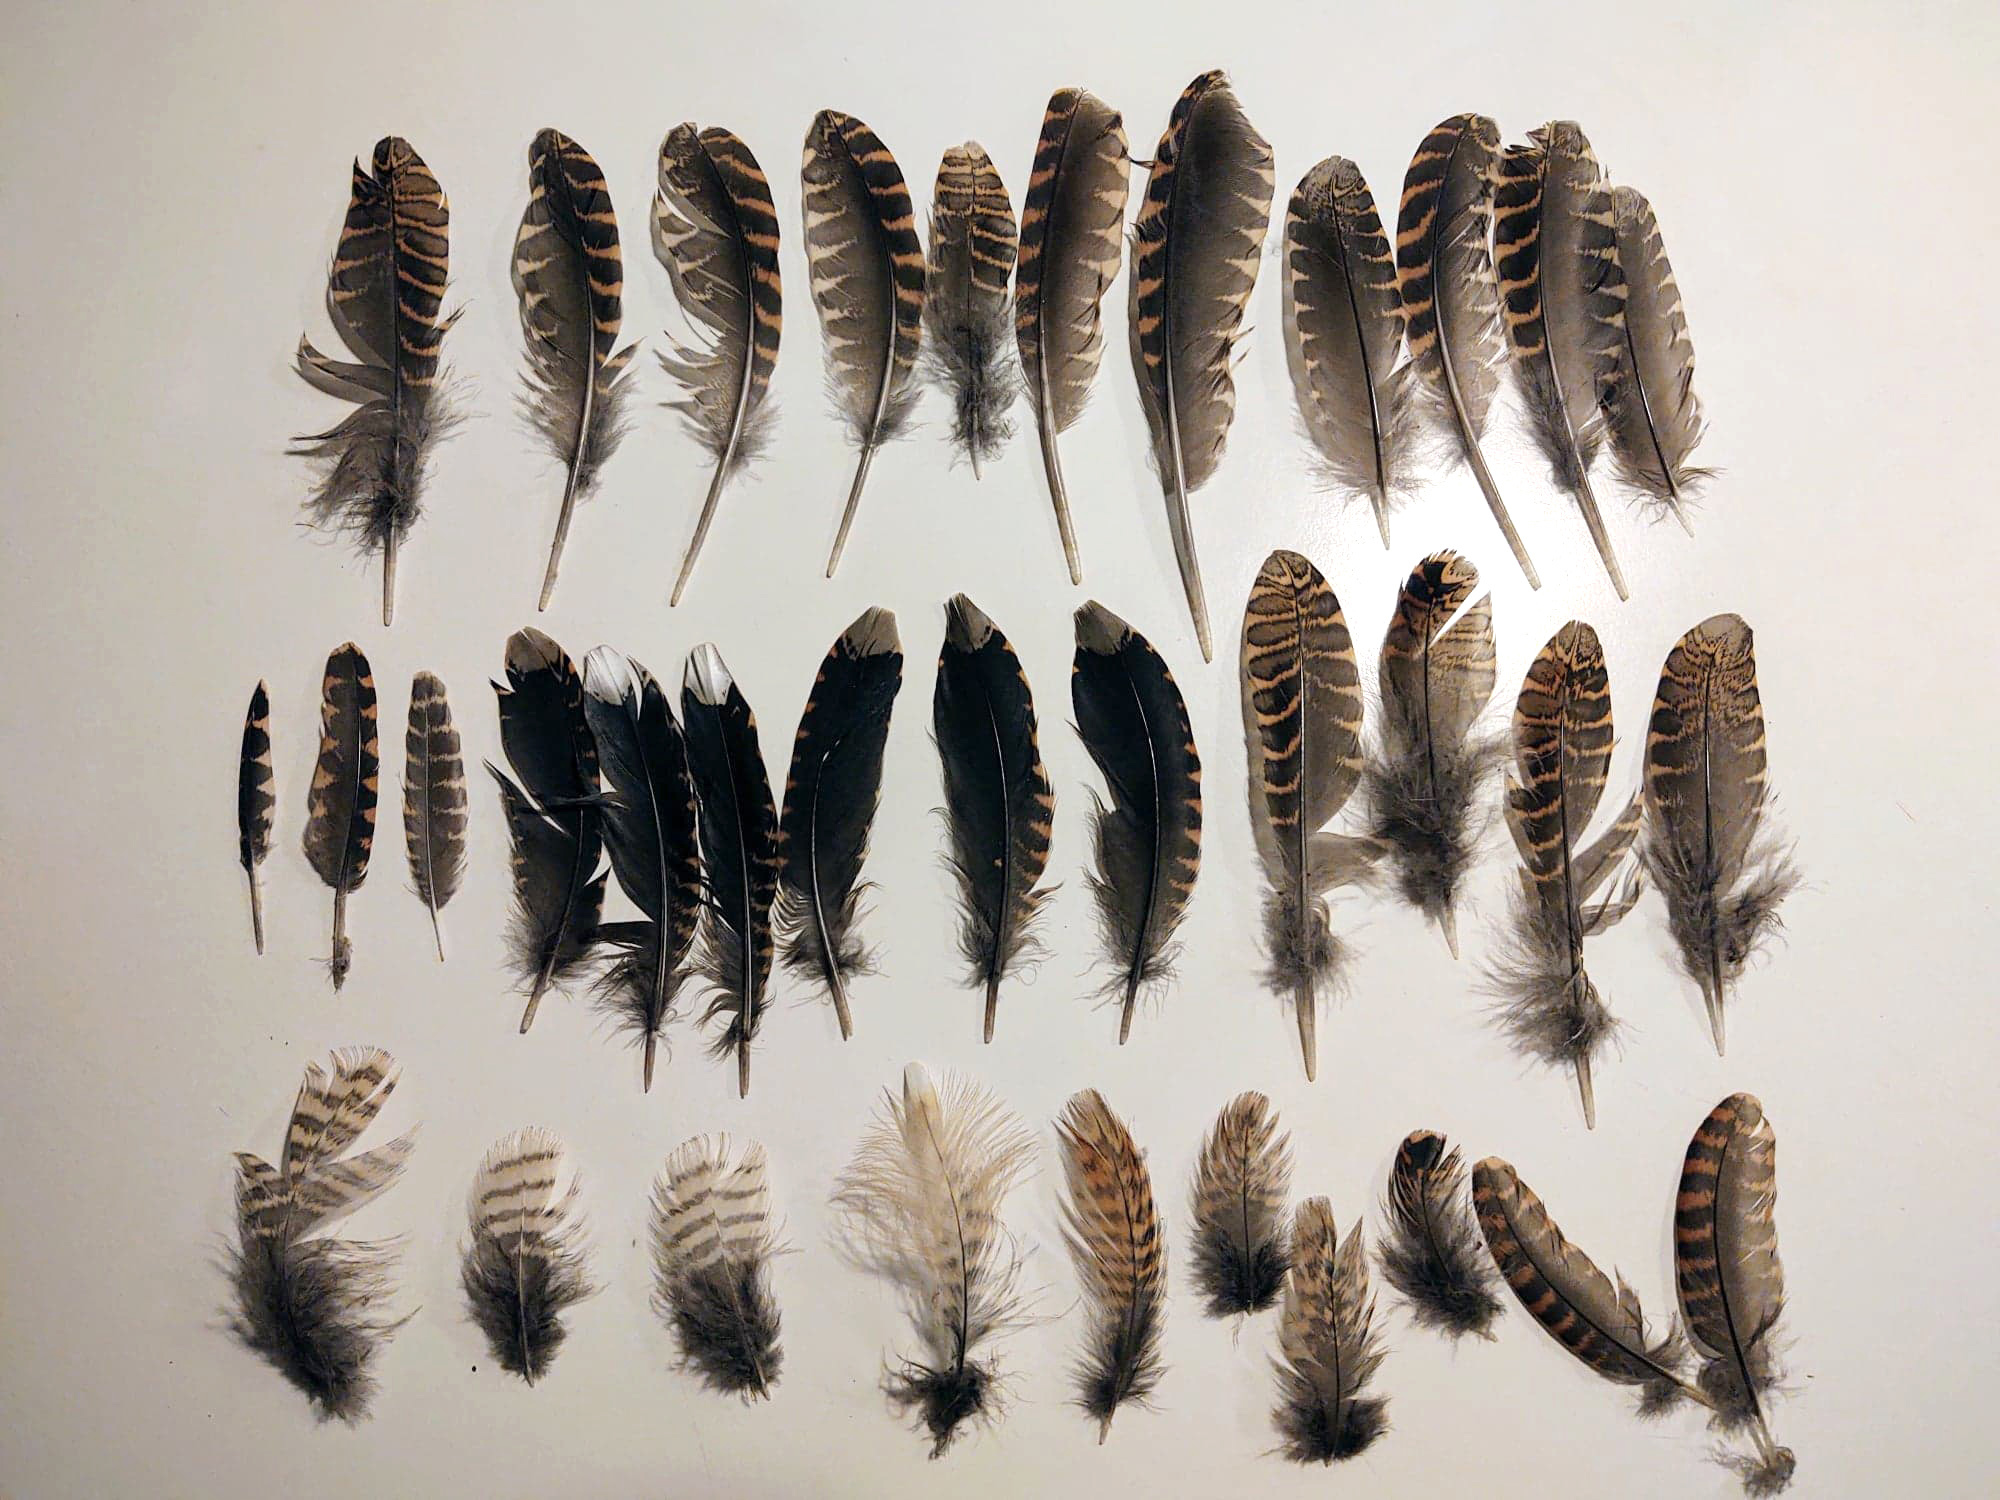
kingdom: Animalia
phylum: Chordata
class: Aves
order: Charadriiformes
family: Scolopacidae
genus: Scolopax
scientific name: Scolopax rusticola
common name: Eurasian woodcock
